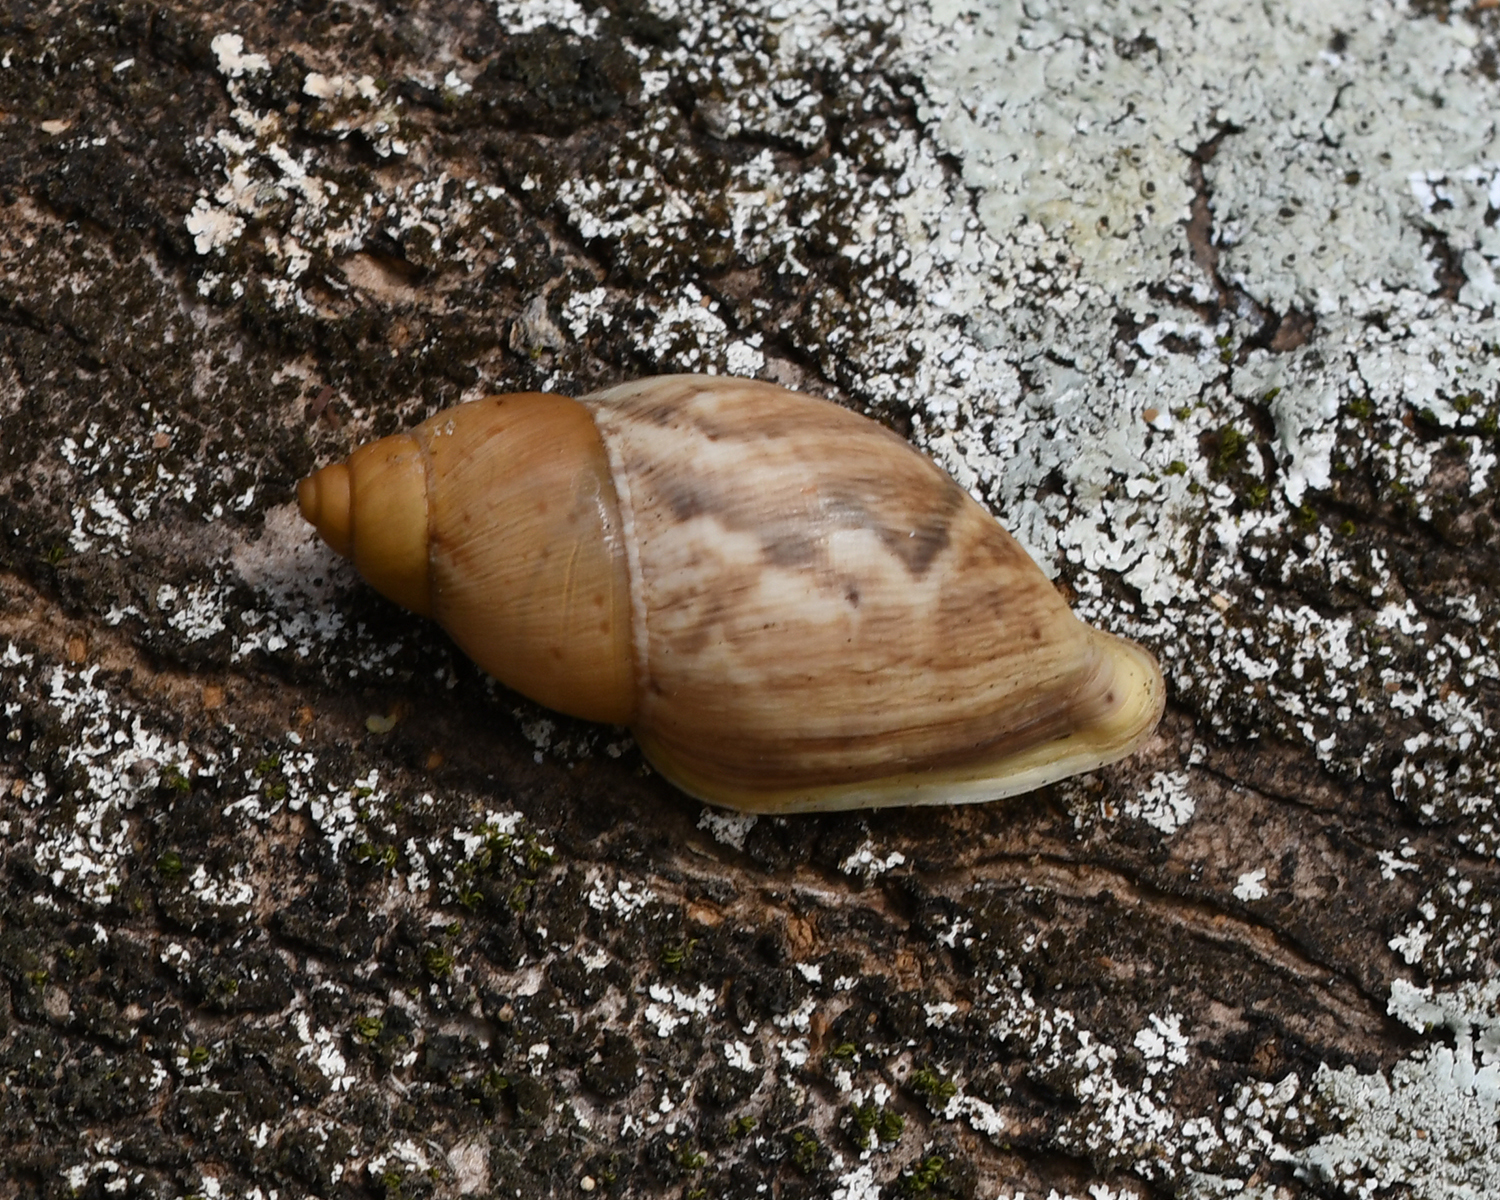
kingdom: Animalia
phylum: Mollusca
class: Gastropoda
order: Stylommatophora
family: Amphibulimidae
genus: Plekocheilus
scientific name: Plekocheilus glaber
